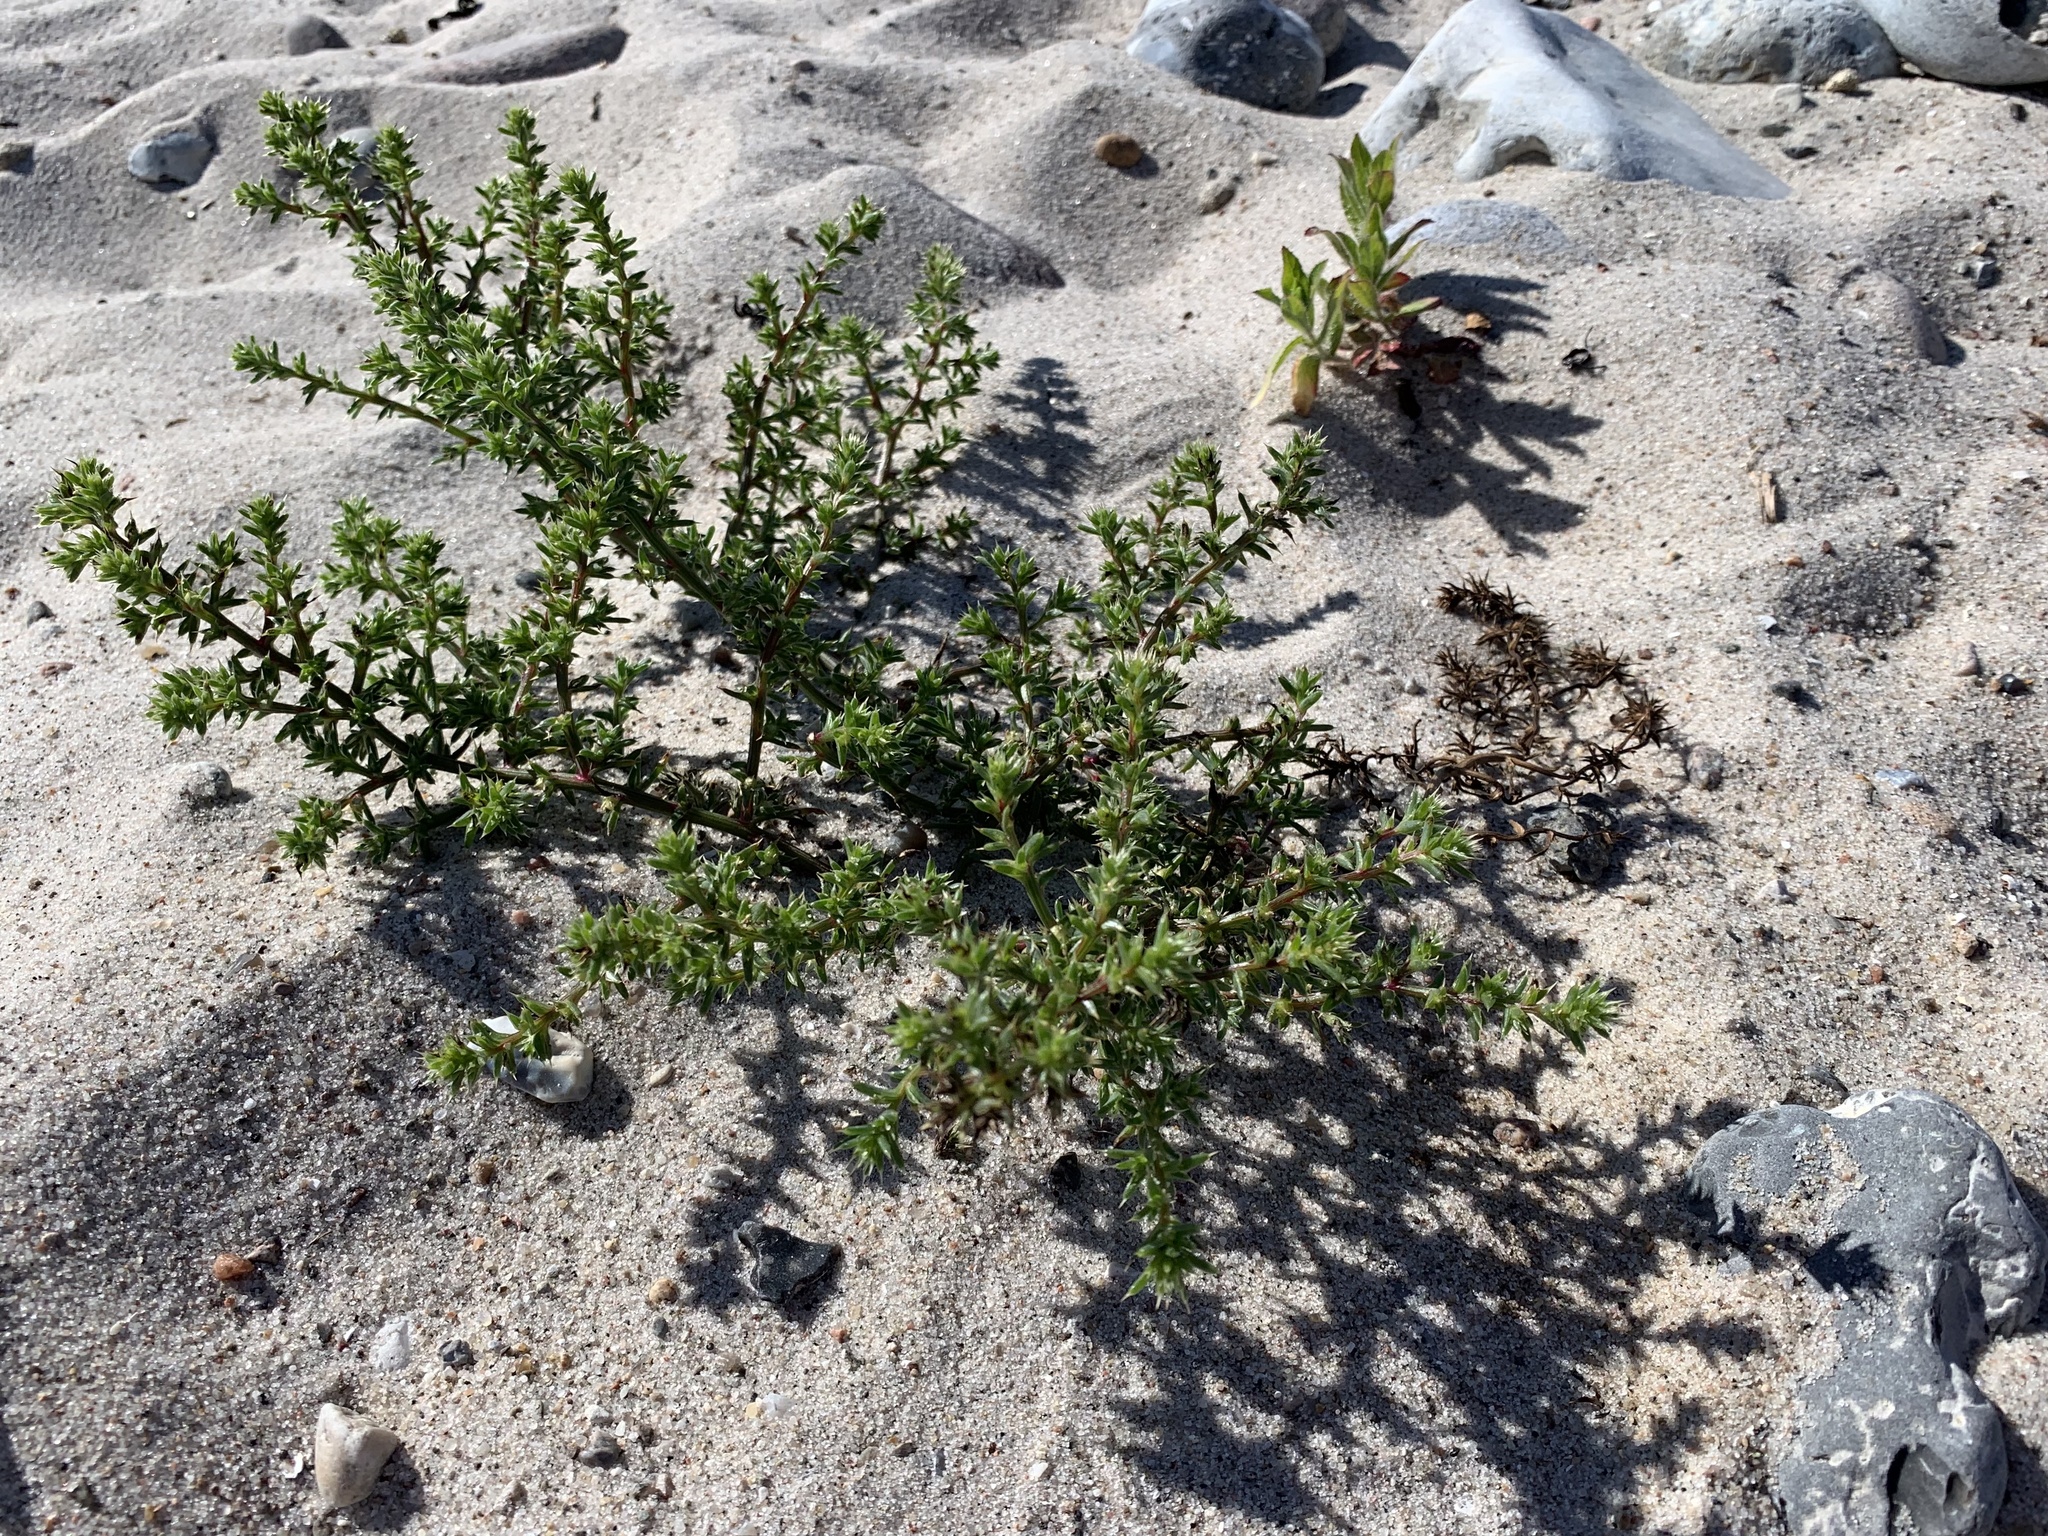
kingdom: Plantae
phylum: Tracheophyta
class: Magnoliopsida
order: Caryophyllales
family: Amaranthaceae
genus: Salsola
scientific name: Salsola kali
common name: Saltwort
